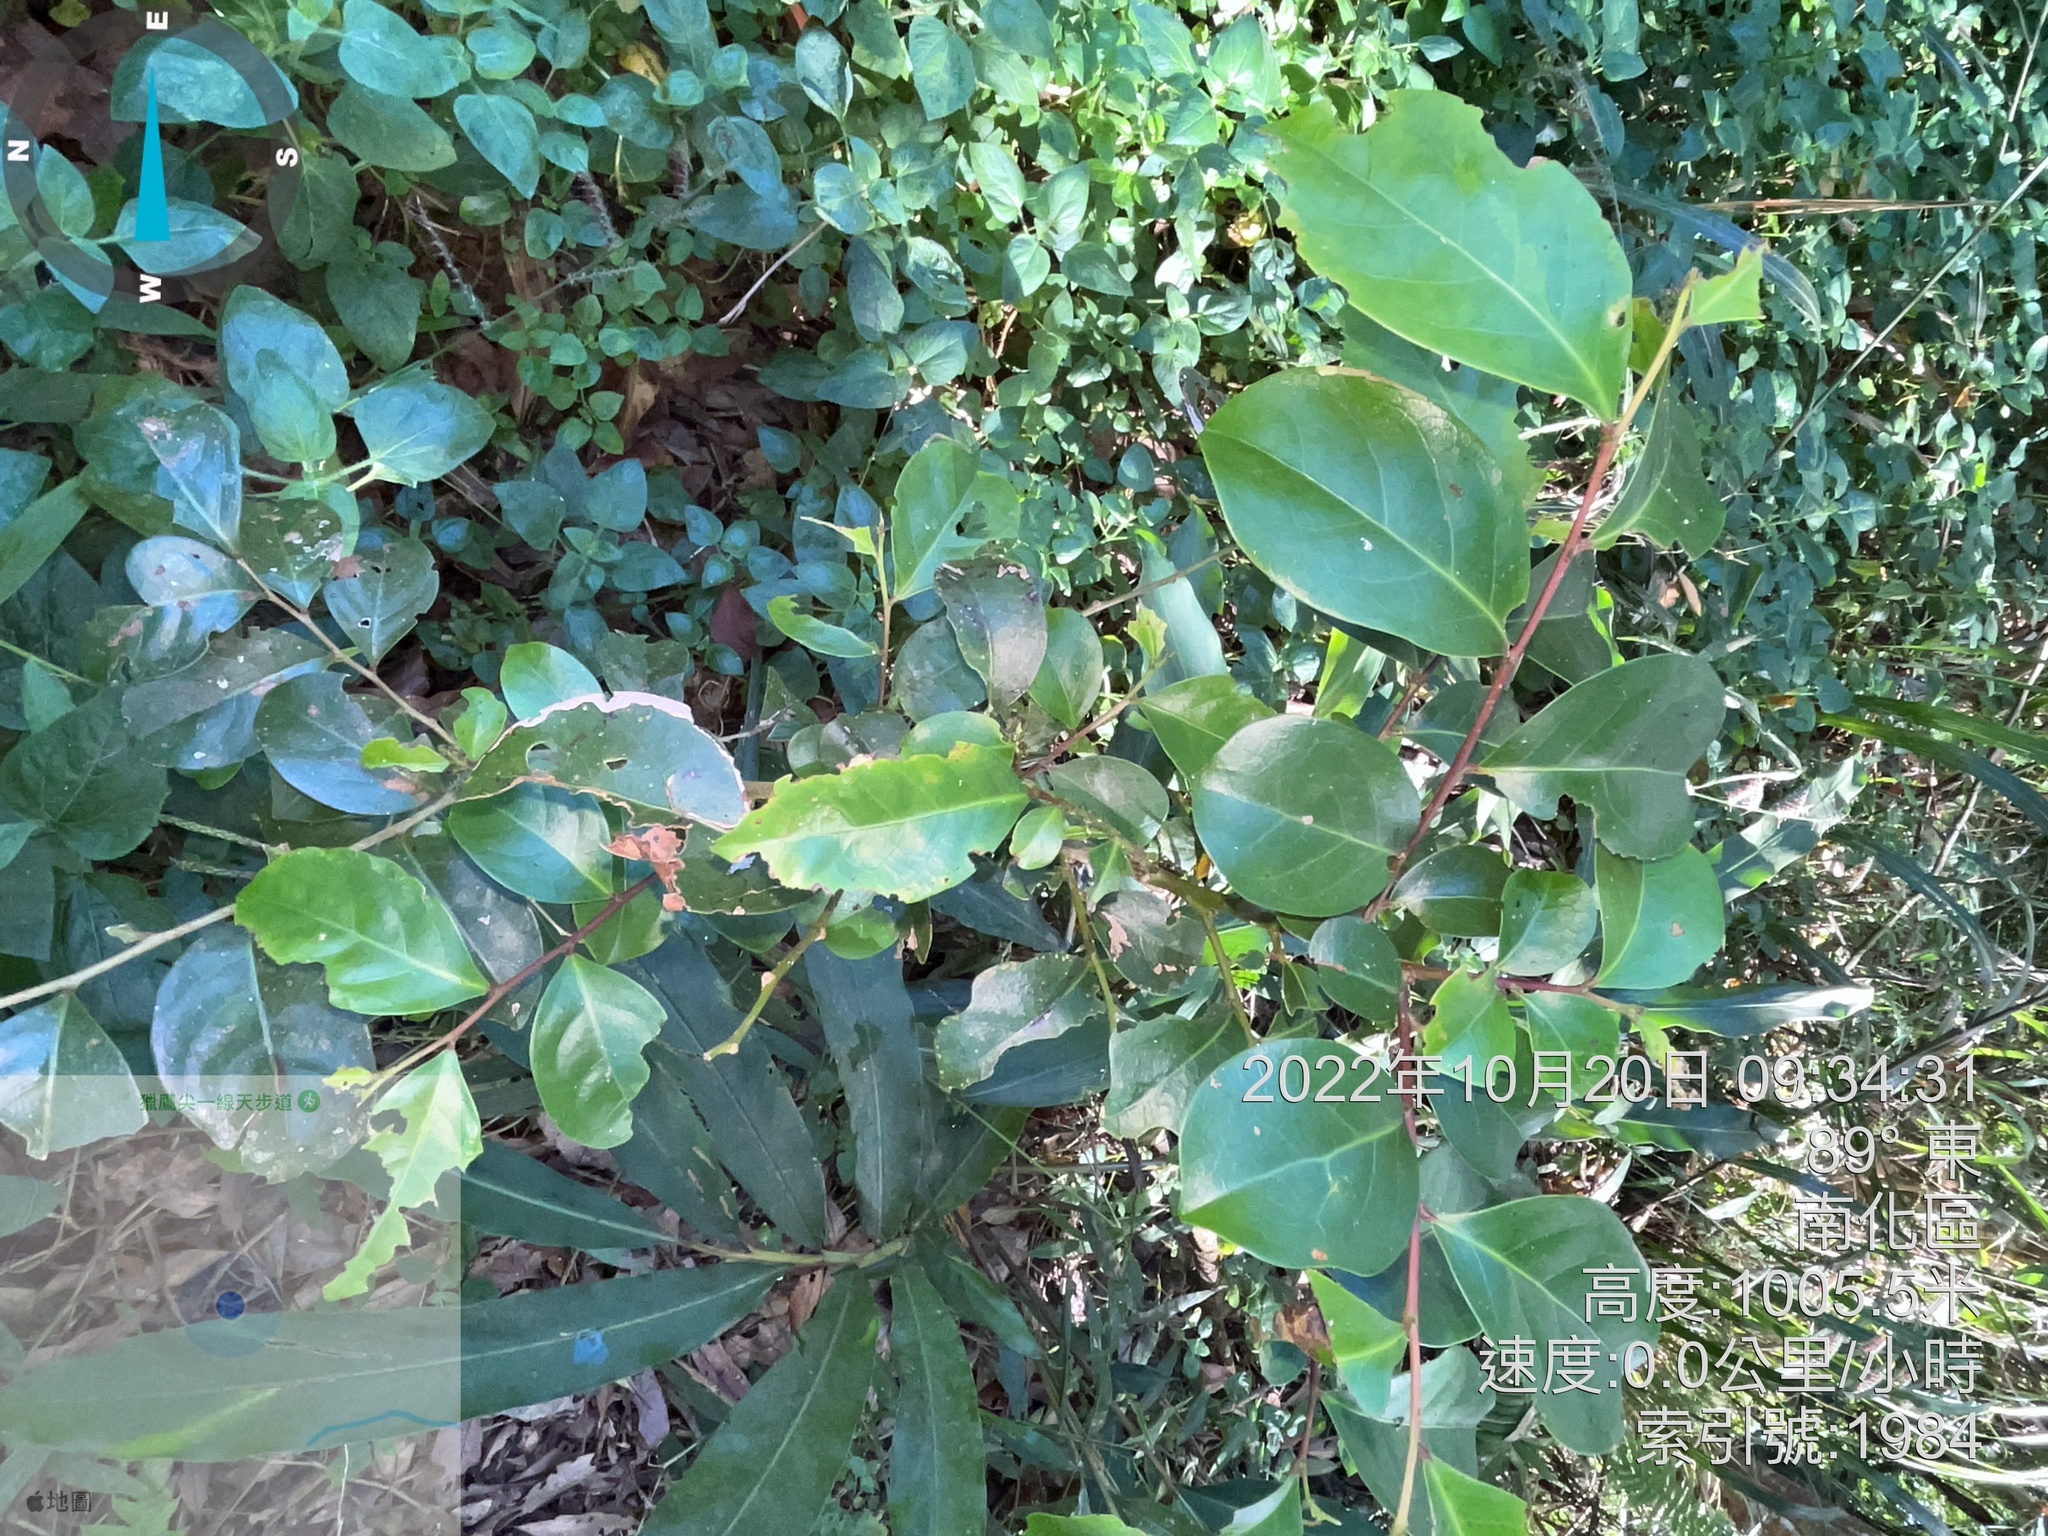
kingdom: Plantae
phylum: Tracheophyta
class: Magnoliopsida
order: Malpighiales
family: Phyllanthaceae
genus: Bridelia
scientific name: Bridelia tomentosa
